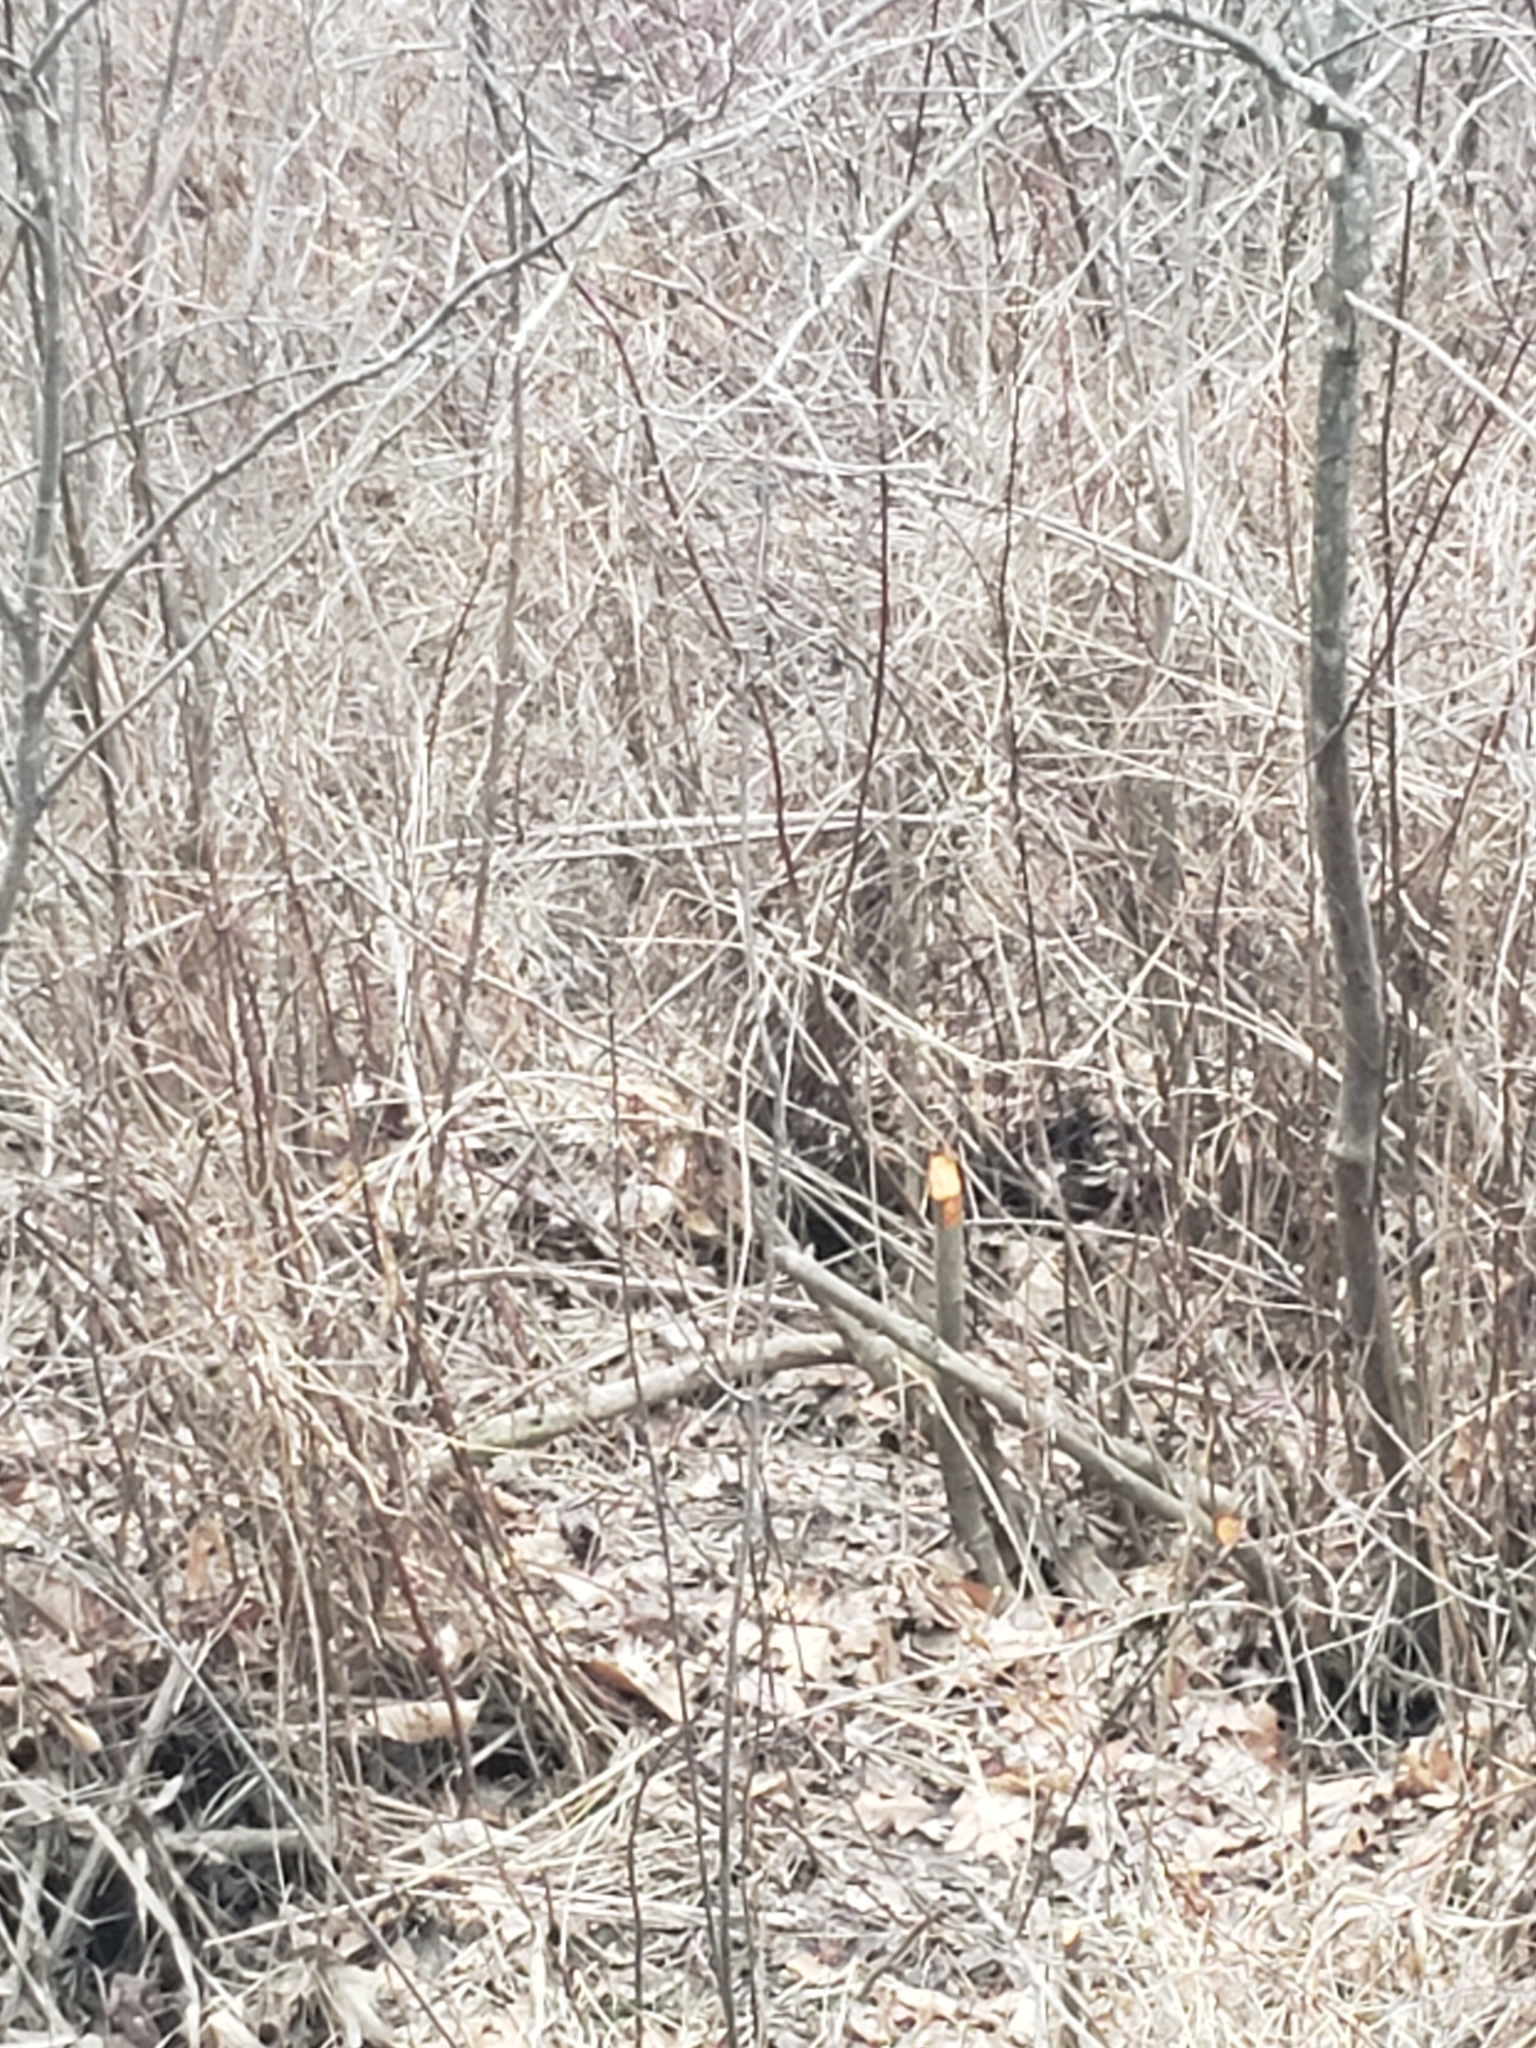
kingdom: Animalia
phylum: Chordata
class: Mammalia
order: Rodentia
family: Castoridae
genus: Castor
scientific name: Castor canadensis
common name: American beaver
